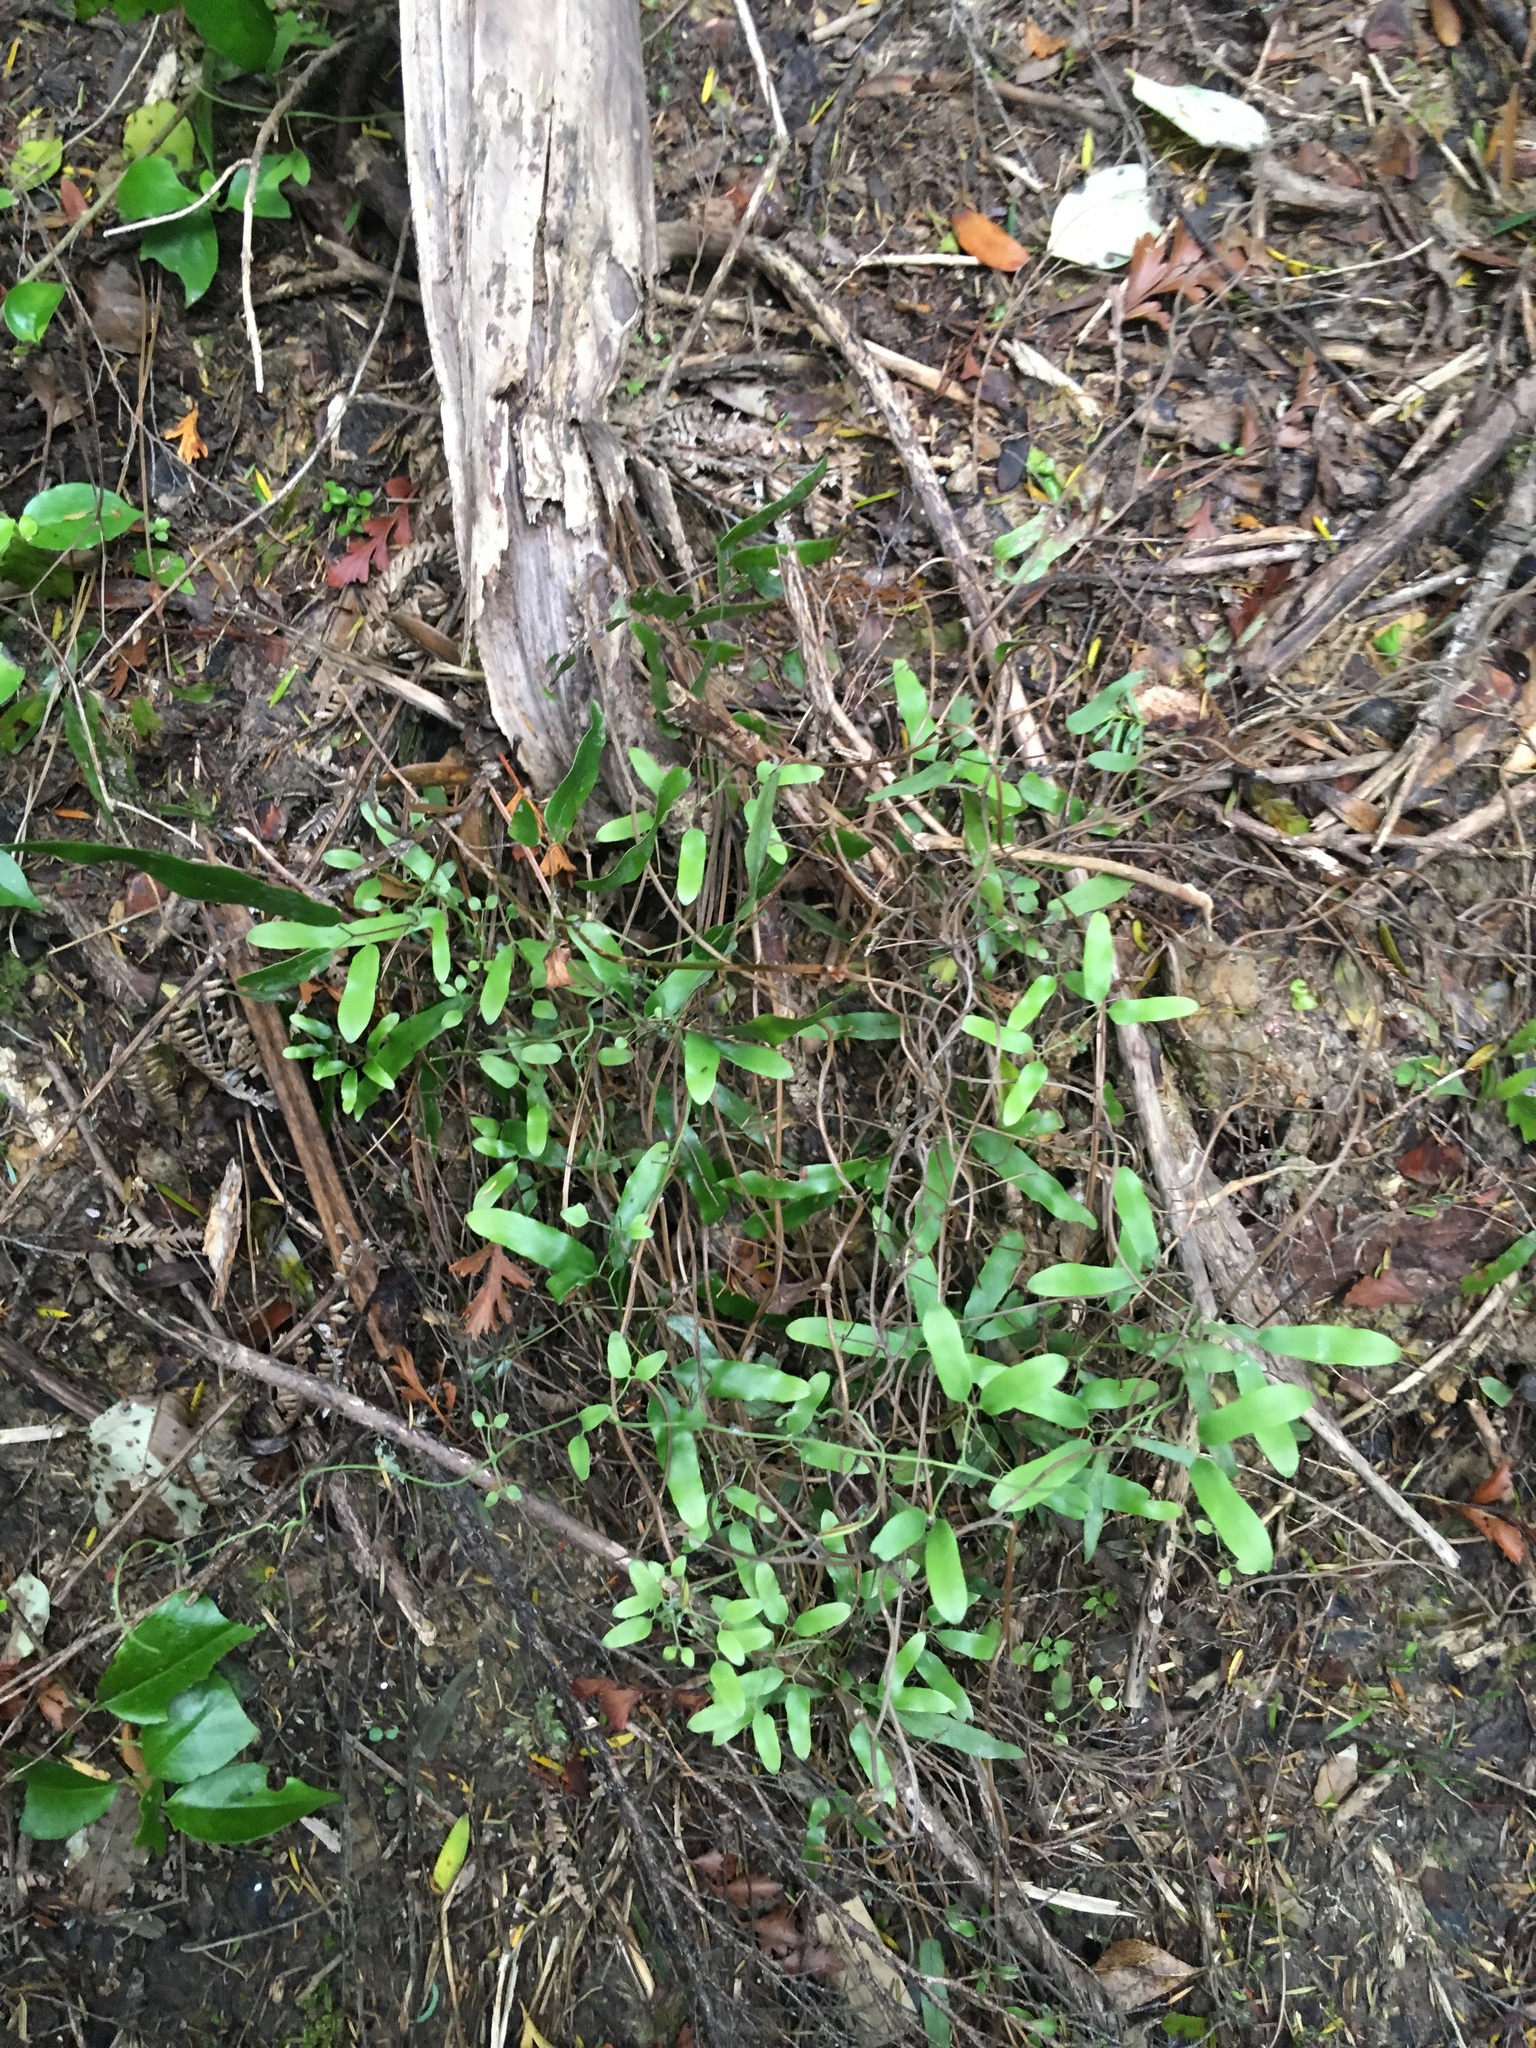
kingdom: Plantae
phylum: Tracheophyta
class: Polypodiopsida
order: Schizaeales
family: Lygodiaceae
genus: Lygodium
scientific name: Lygodium articulatum
